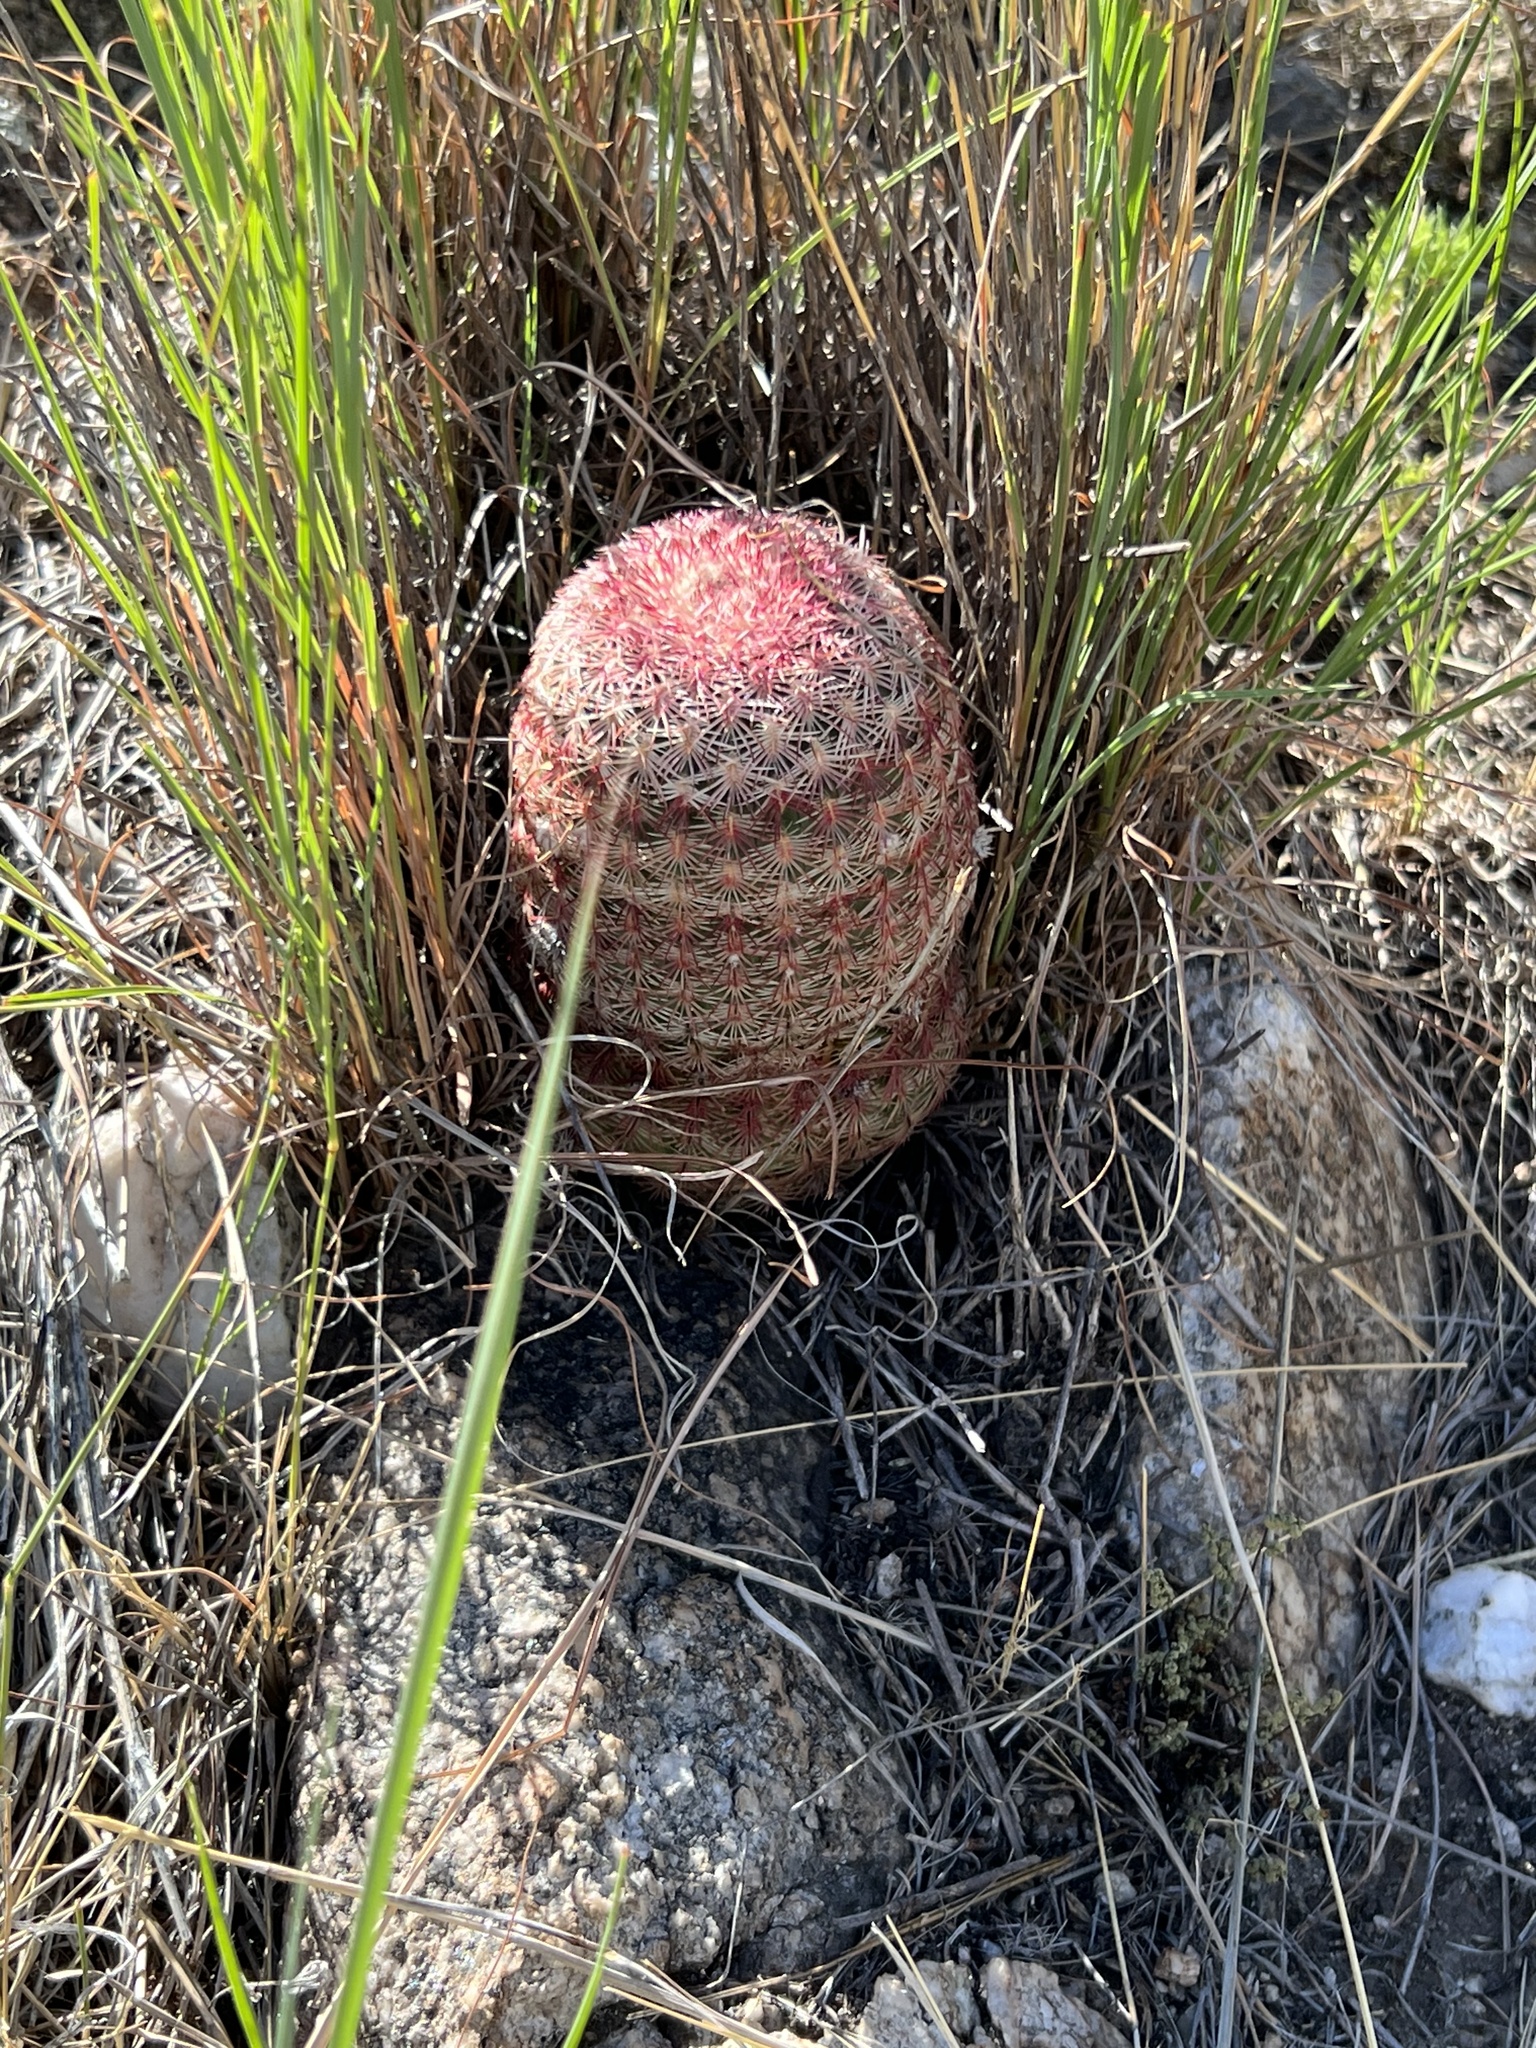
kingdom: Plantae
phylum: Tracheophyta
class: Magnoliopsida
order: Caryophyllales
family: Cactaceae
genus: Echinocereus
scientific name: Echinocereus rigidissimus
